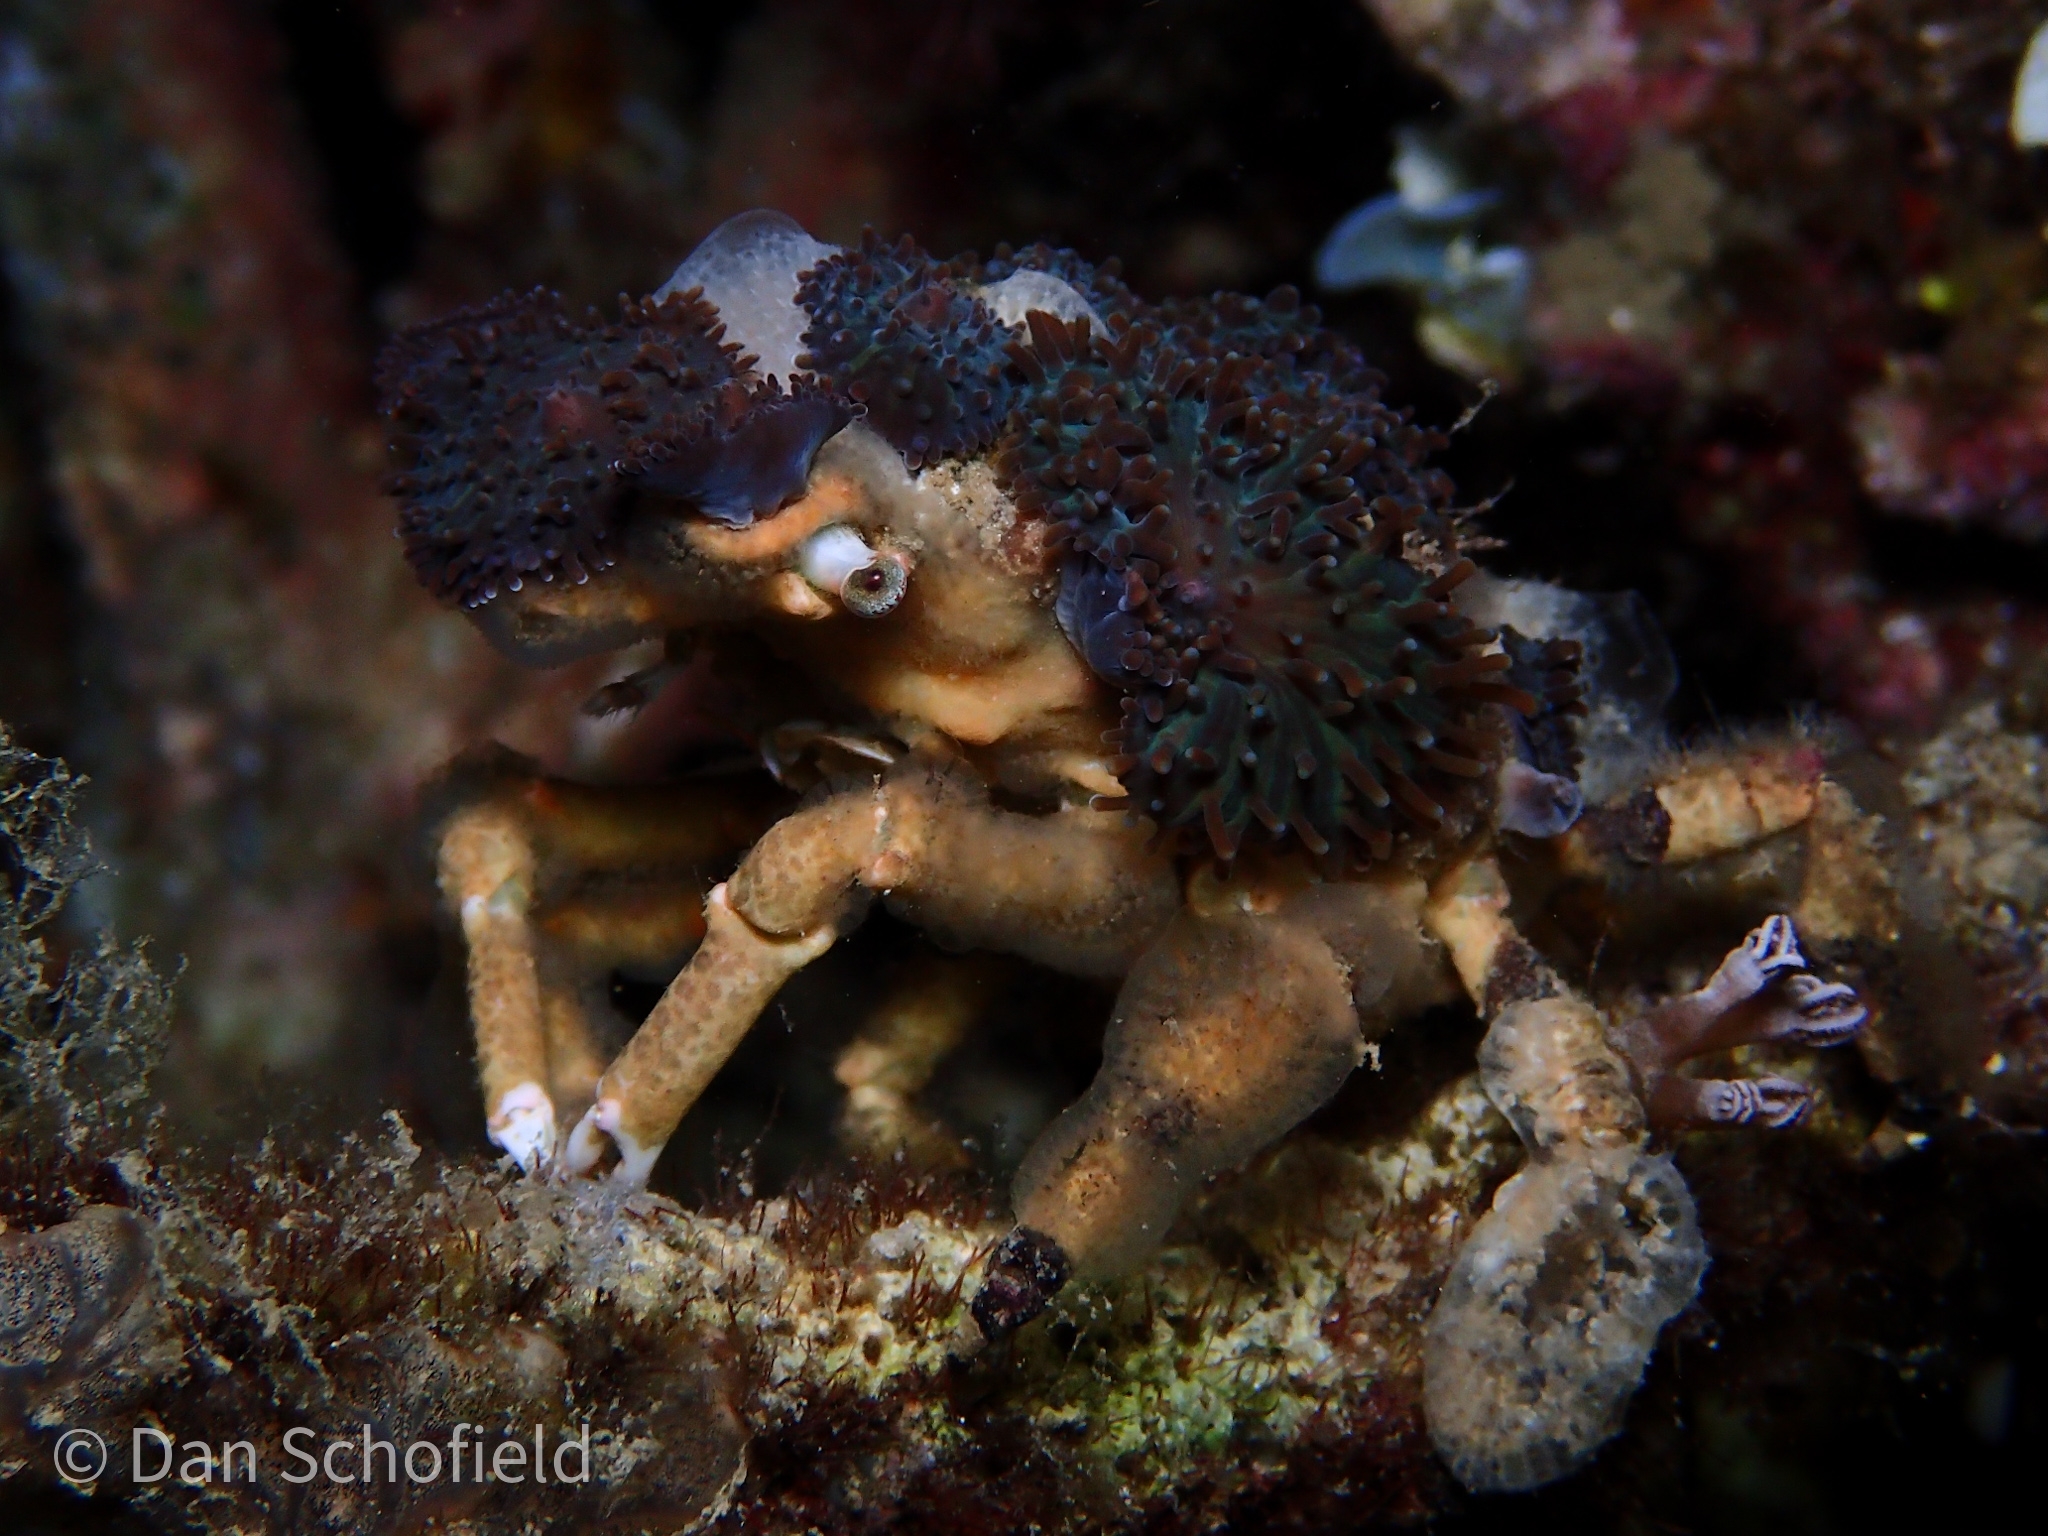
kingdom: Animalia
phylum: Arthropoda
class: Malacostraca
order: Decapoda
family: Epialtidae
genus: Cyclocoeloma
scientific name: Cyclocoeloma tuberculatum
